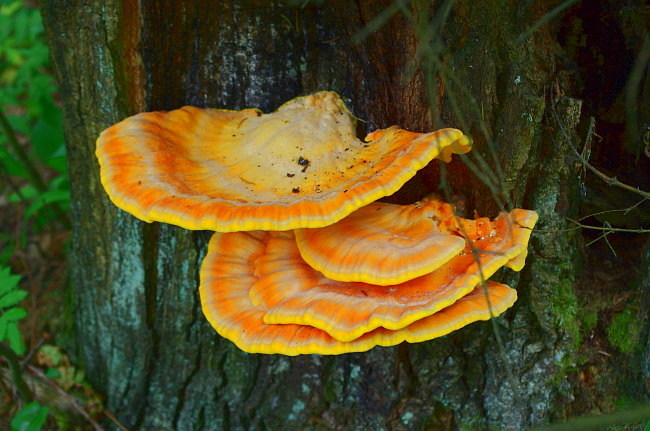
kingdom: Fungi
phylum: Basidiomycota
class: Agaricomycetes
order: Polyporales
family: Laetiporaceae
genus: Laetiporus
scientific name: Laetiporus sulphureus
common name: Chicken of the woods
